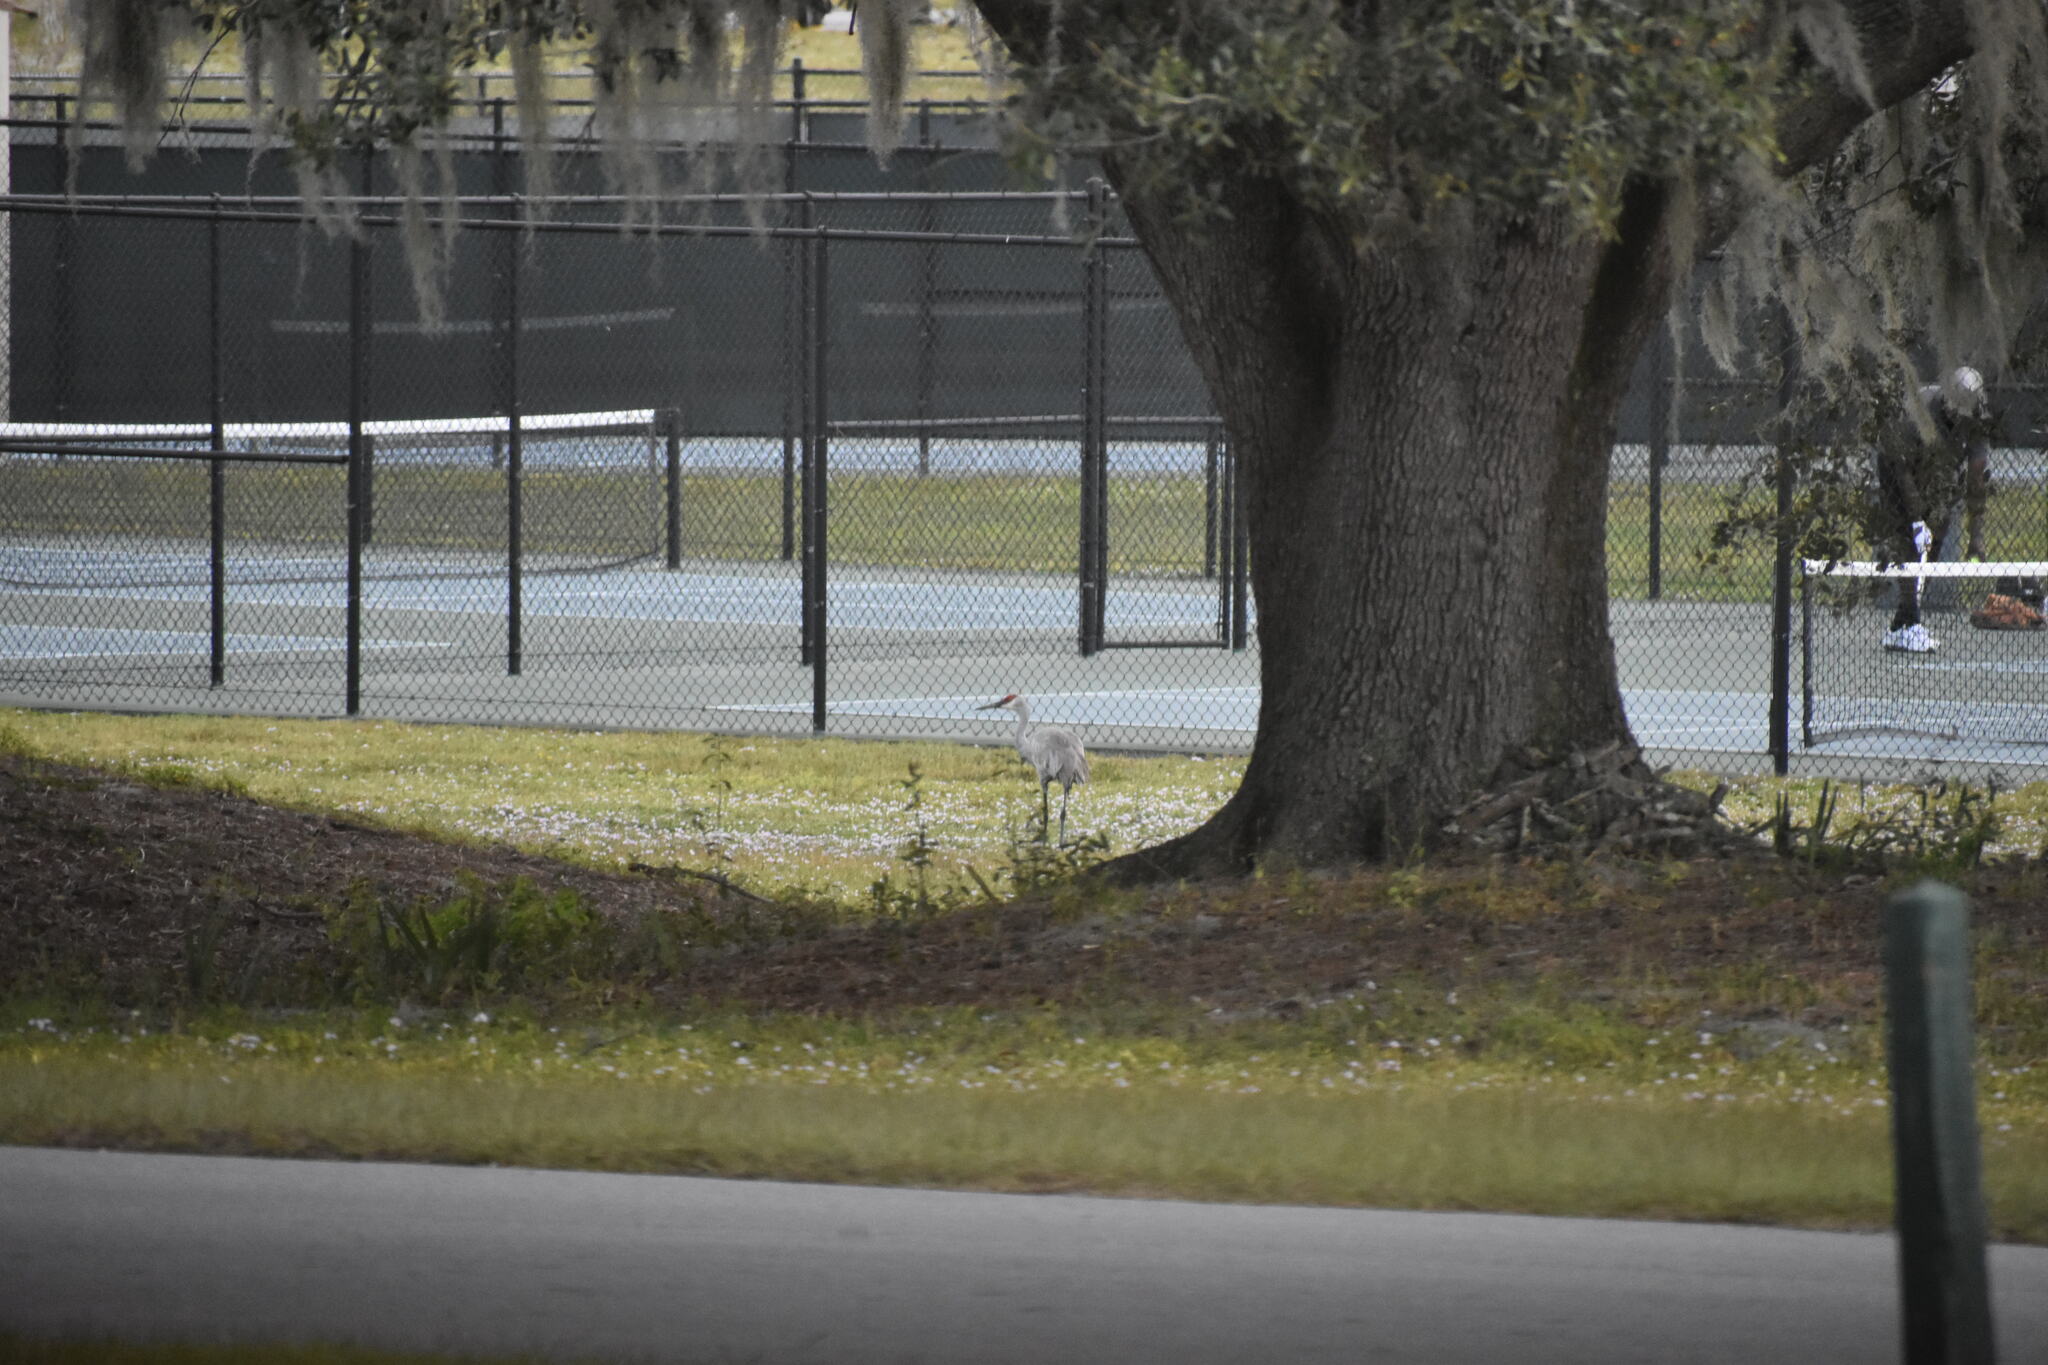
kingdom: Animalia
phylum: Chordata
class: Aves
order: Gruiformes
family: Gruidae
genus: Grus
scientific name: Grus canadensis
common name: Sandhill crane
